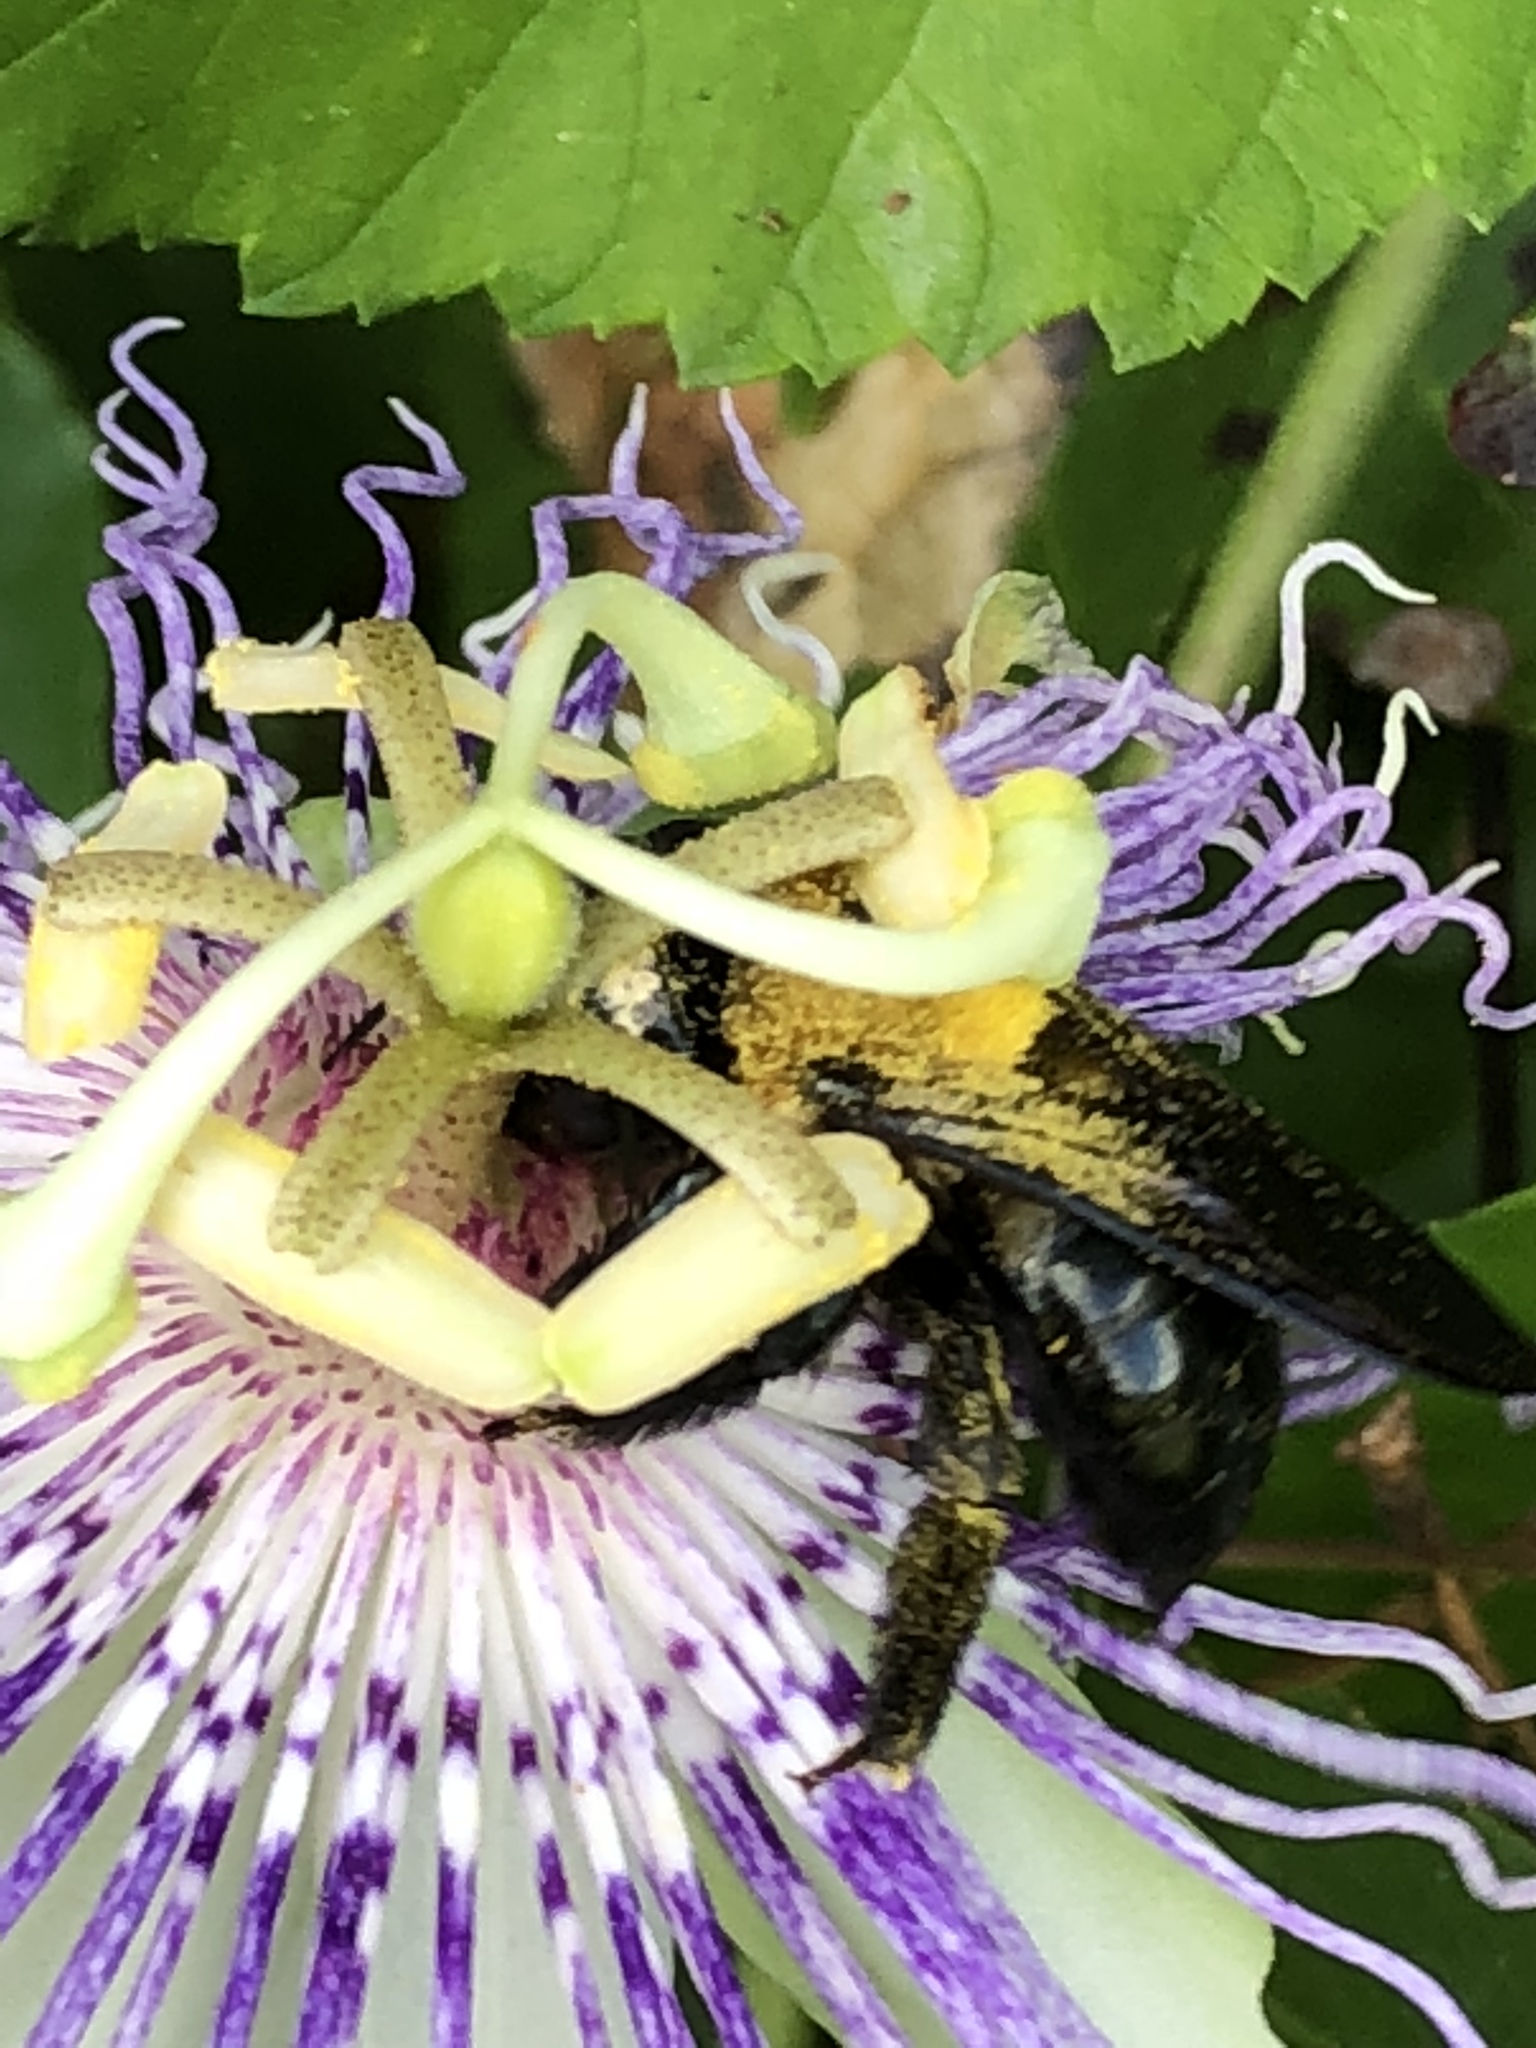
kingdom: Animalia
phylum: Arthropoda
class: Insecta
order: Hymenoptera
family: Apidae
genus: Xylocopa
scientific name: Xylocopa virginica
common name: Carpenter bee
